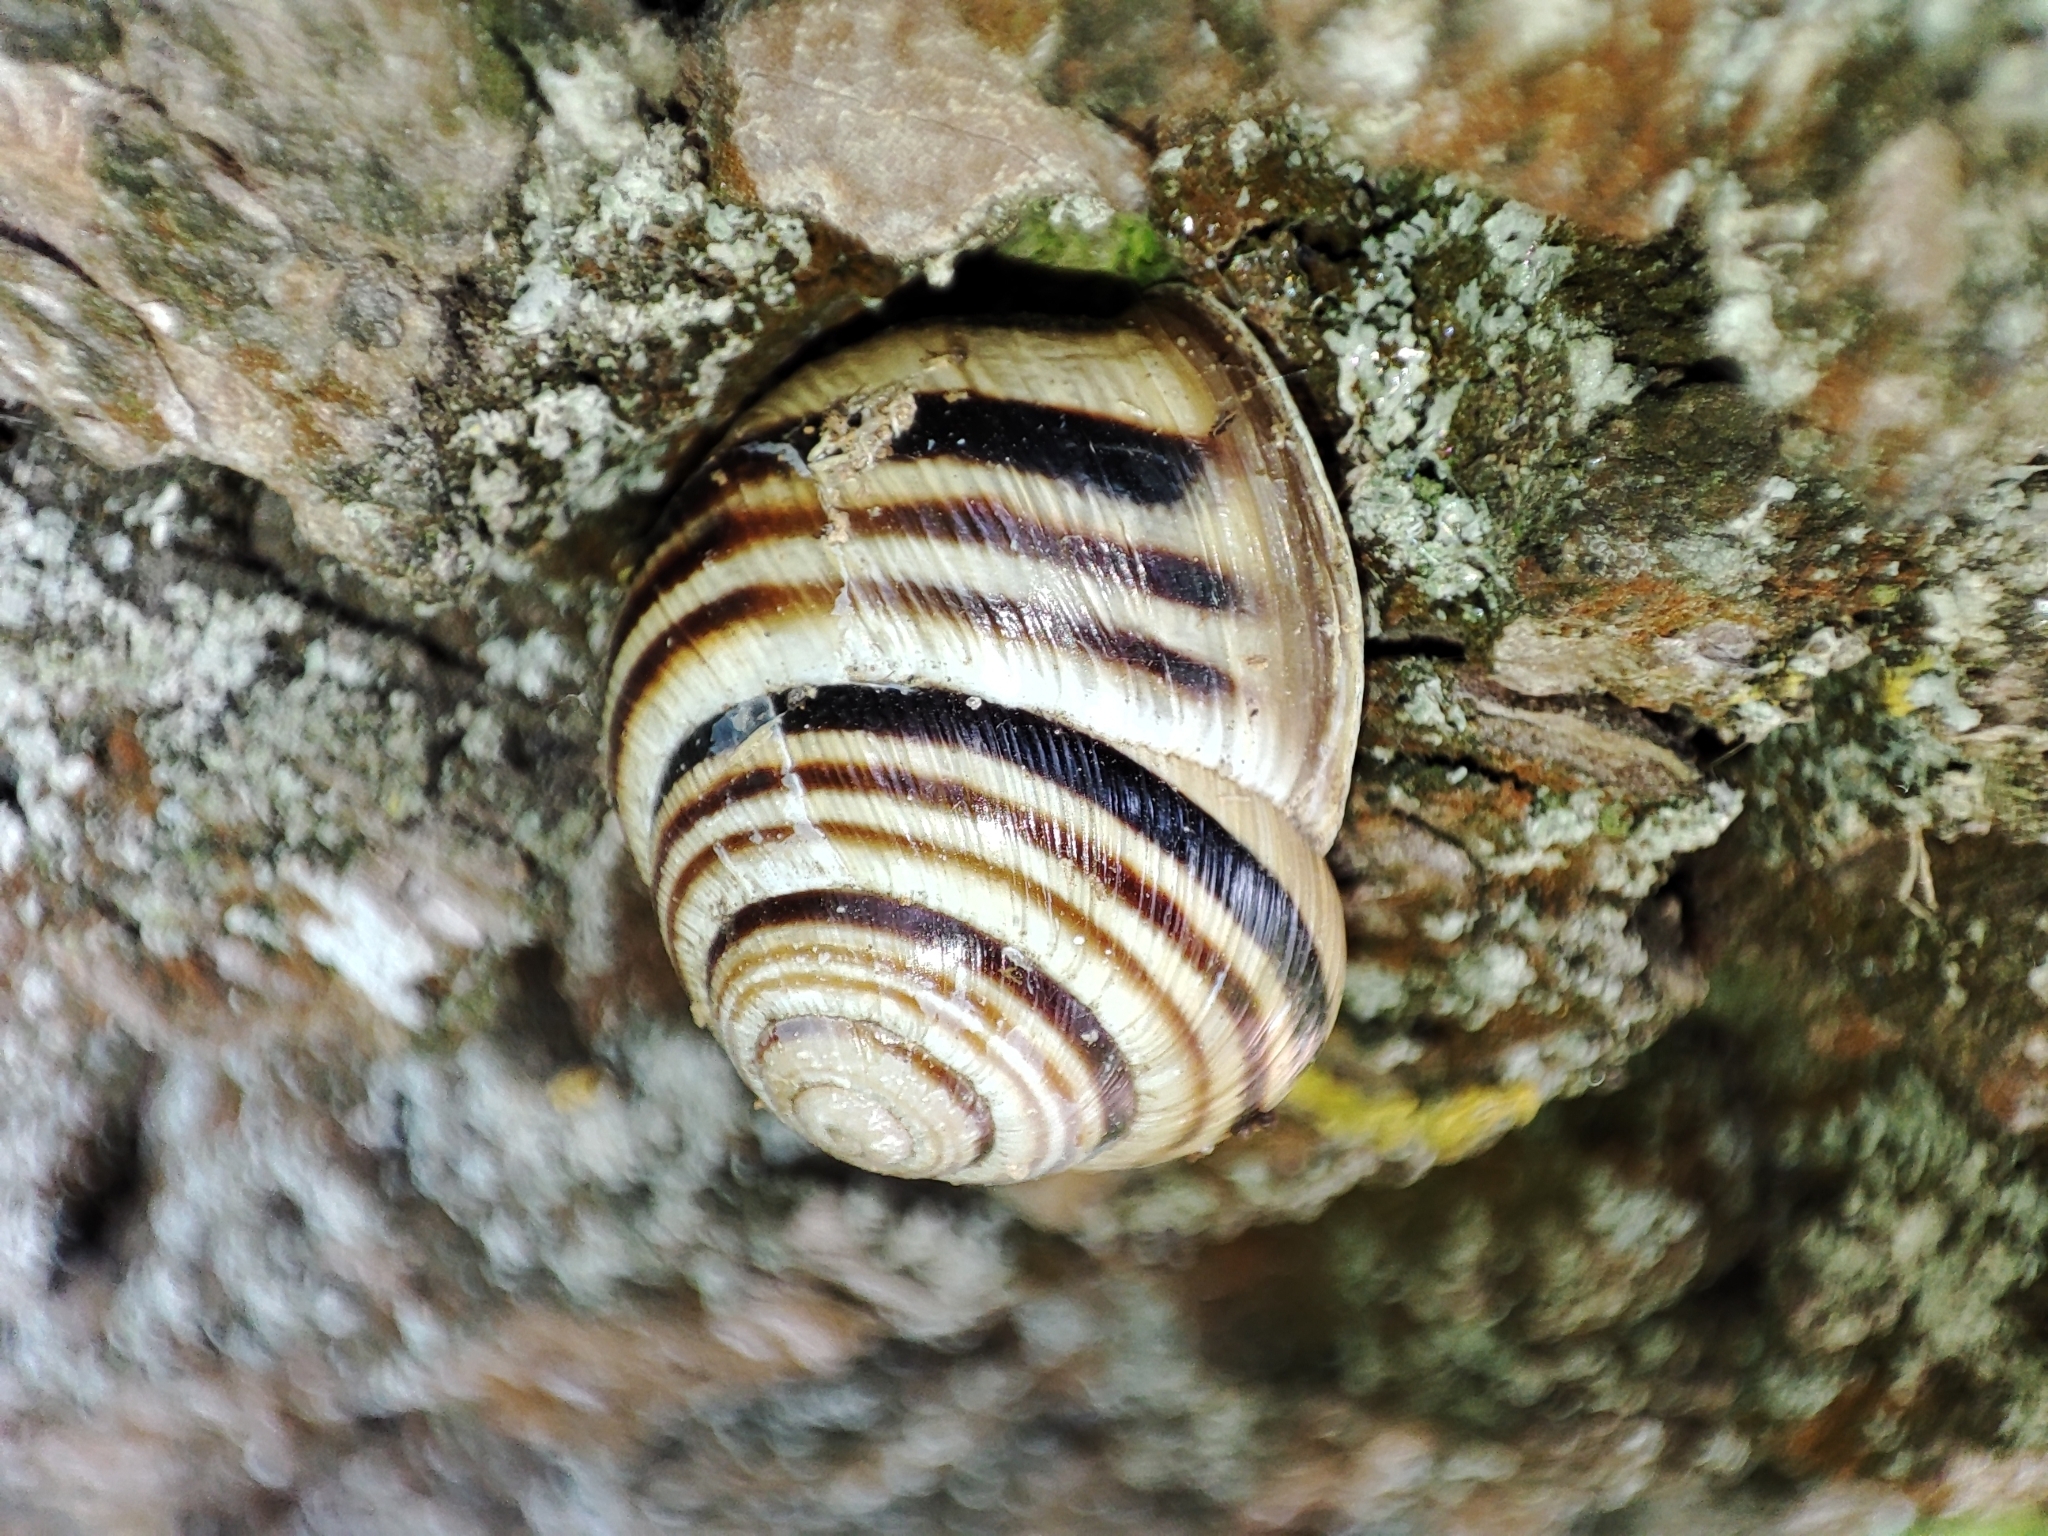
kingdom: Animalia
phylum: Mollusca
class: Gastropoda
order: Stylommatophora
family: Helicidae
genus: Caucasotachea
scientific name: Caucasotachea vindobonensis
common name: European helicid land snail
